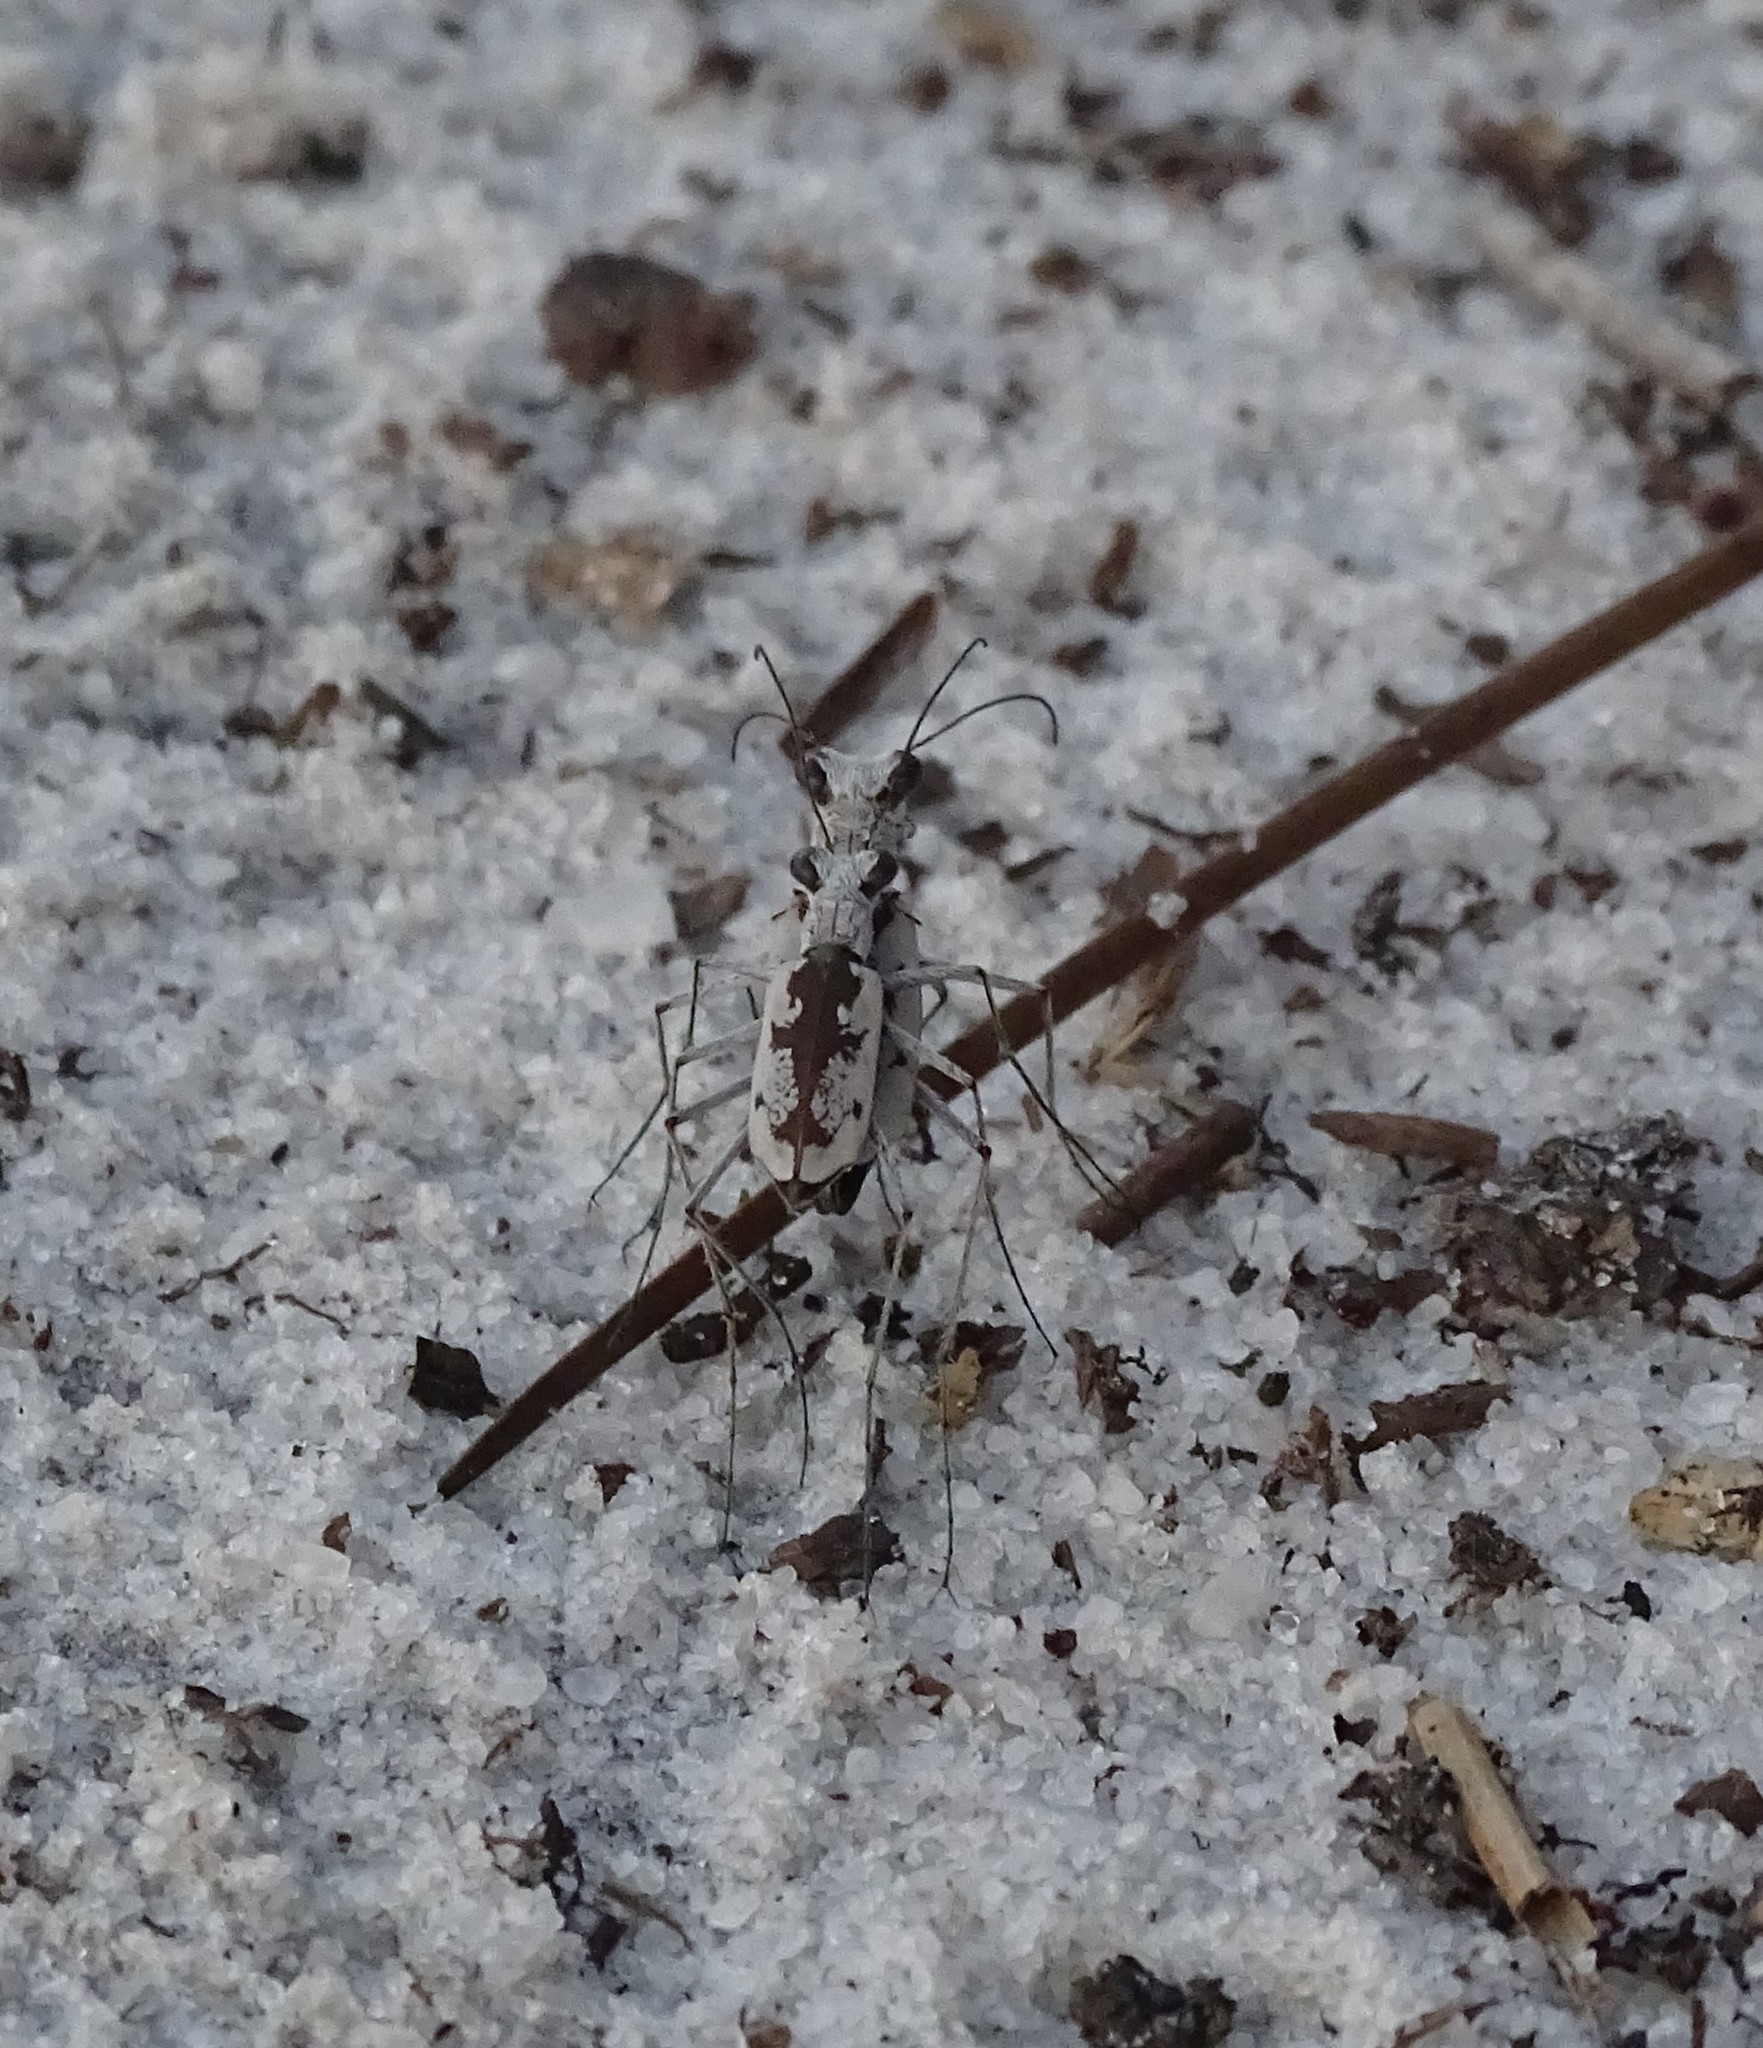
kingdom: Animalia
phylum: Arthropoda
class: Insecta
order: Coleoptera
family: Carabidae
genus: Ellipsoptera
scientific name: Ellipsoptera hirtilabris
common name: Moustached tiger beetle
